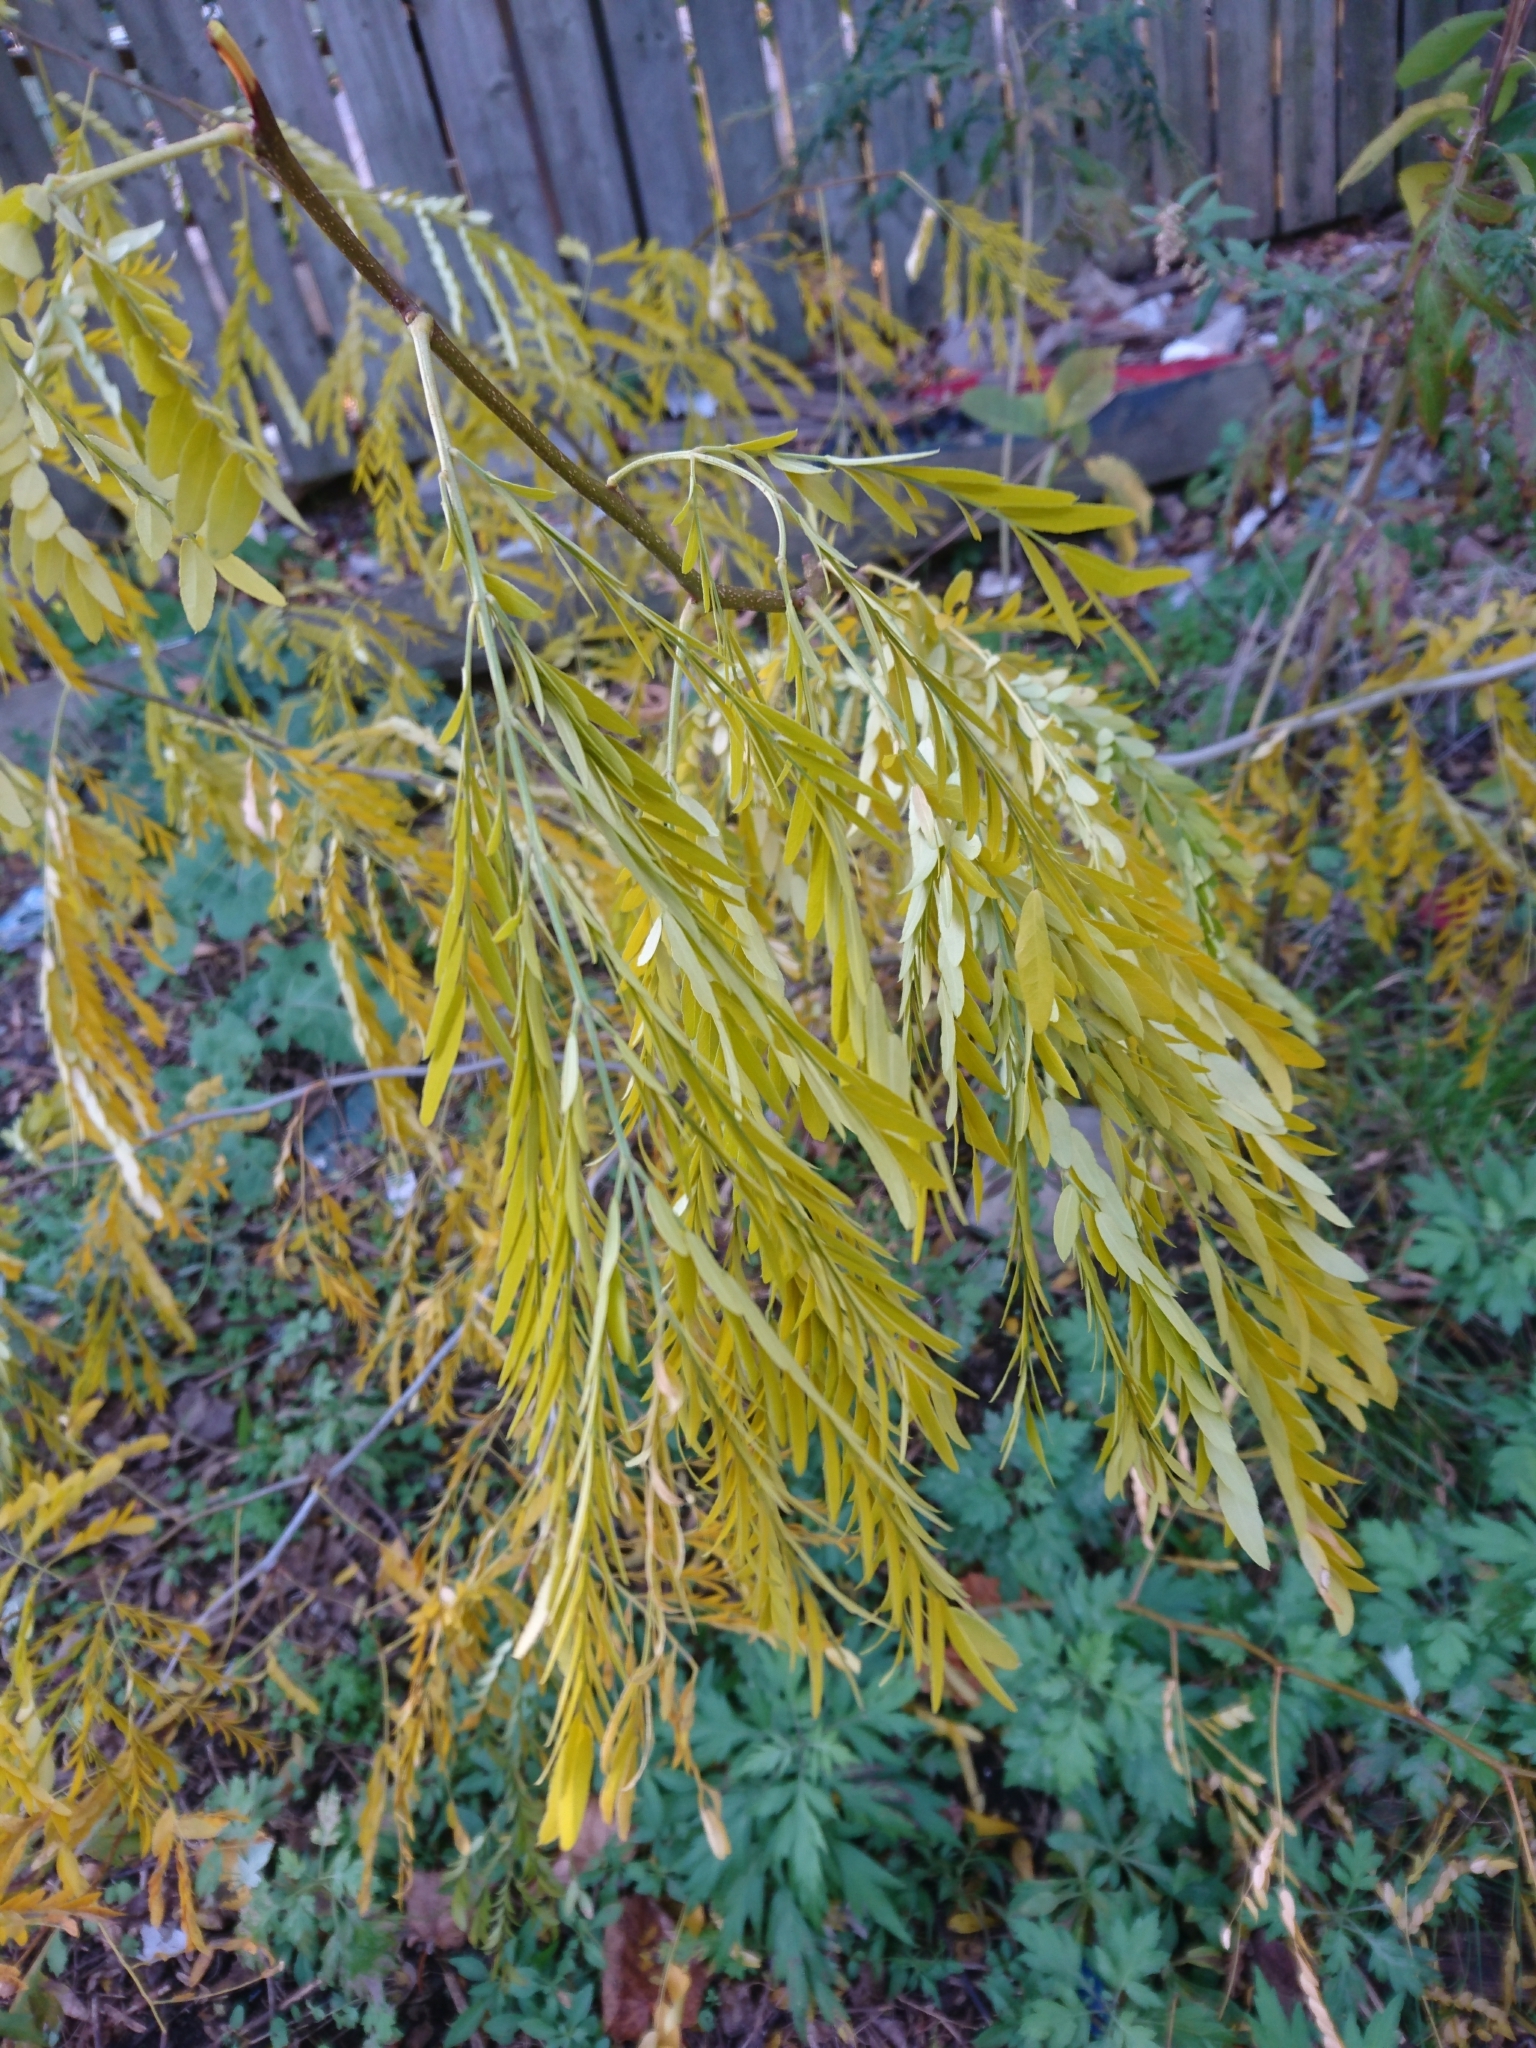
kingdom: Plantae
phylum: Tracheophyta
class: Magnoliopsida
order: Fabales
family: Fabaceae
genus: Gleditsia
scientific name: Gleditsia triacanthos
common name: Common honeylocust
